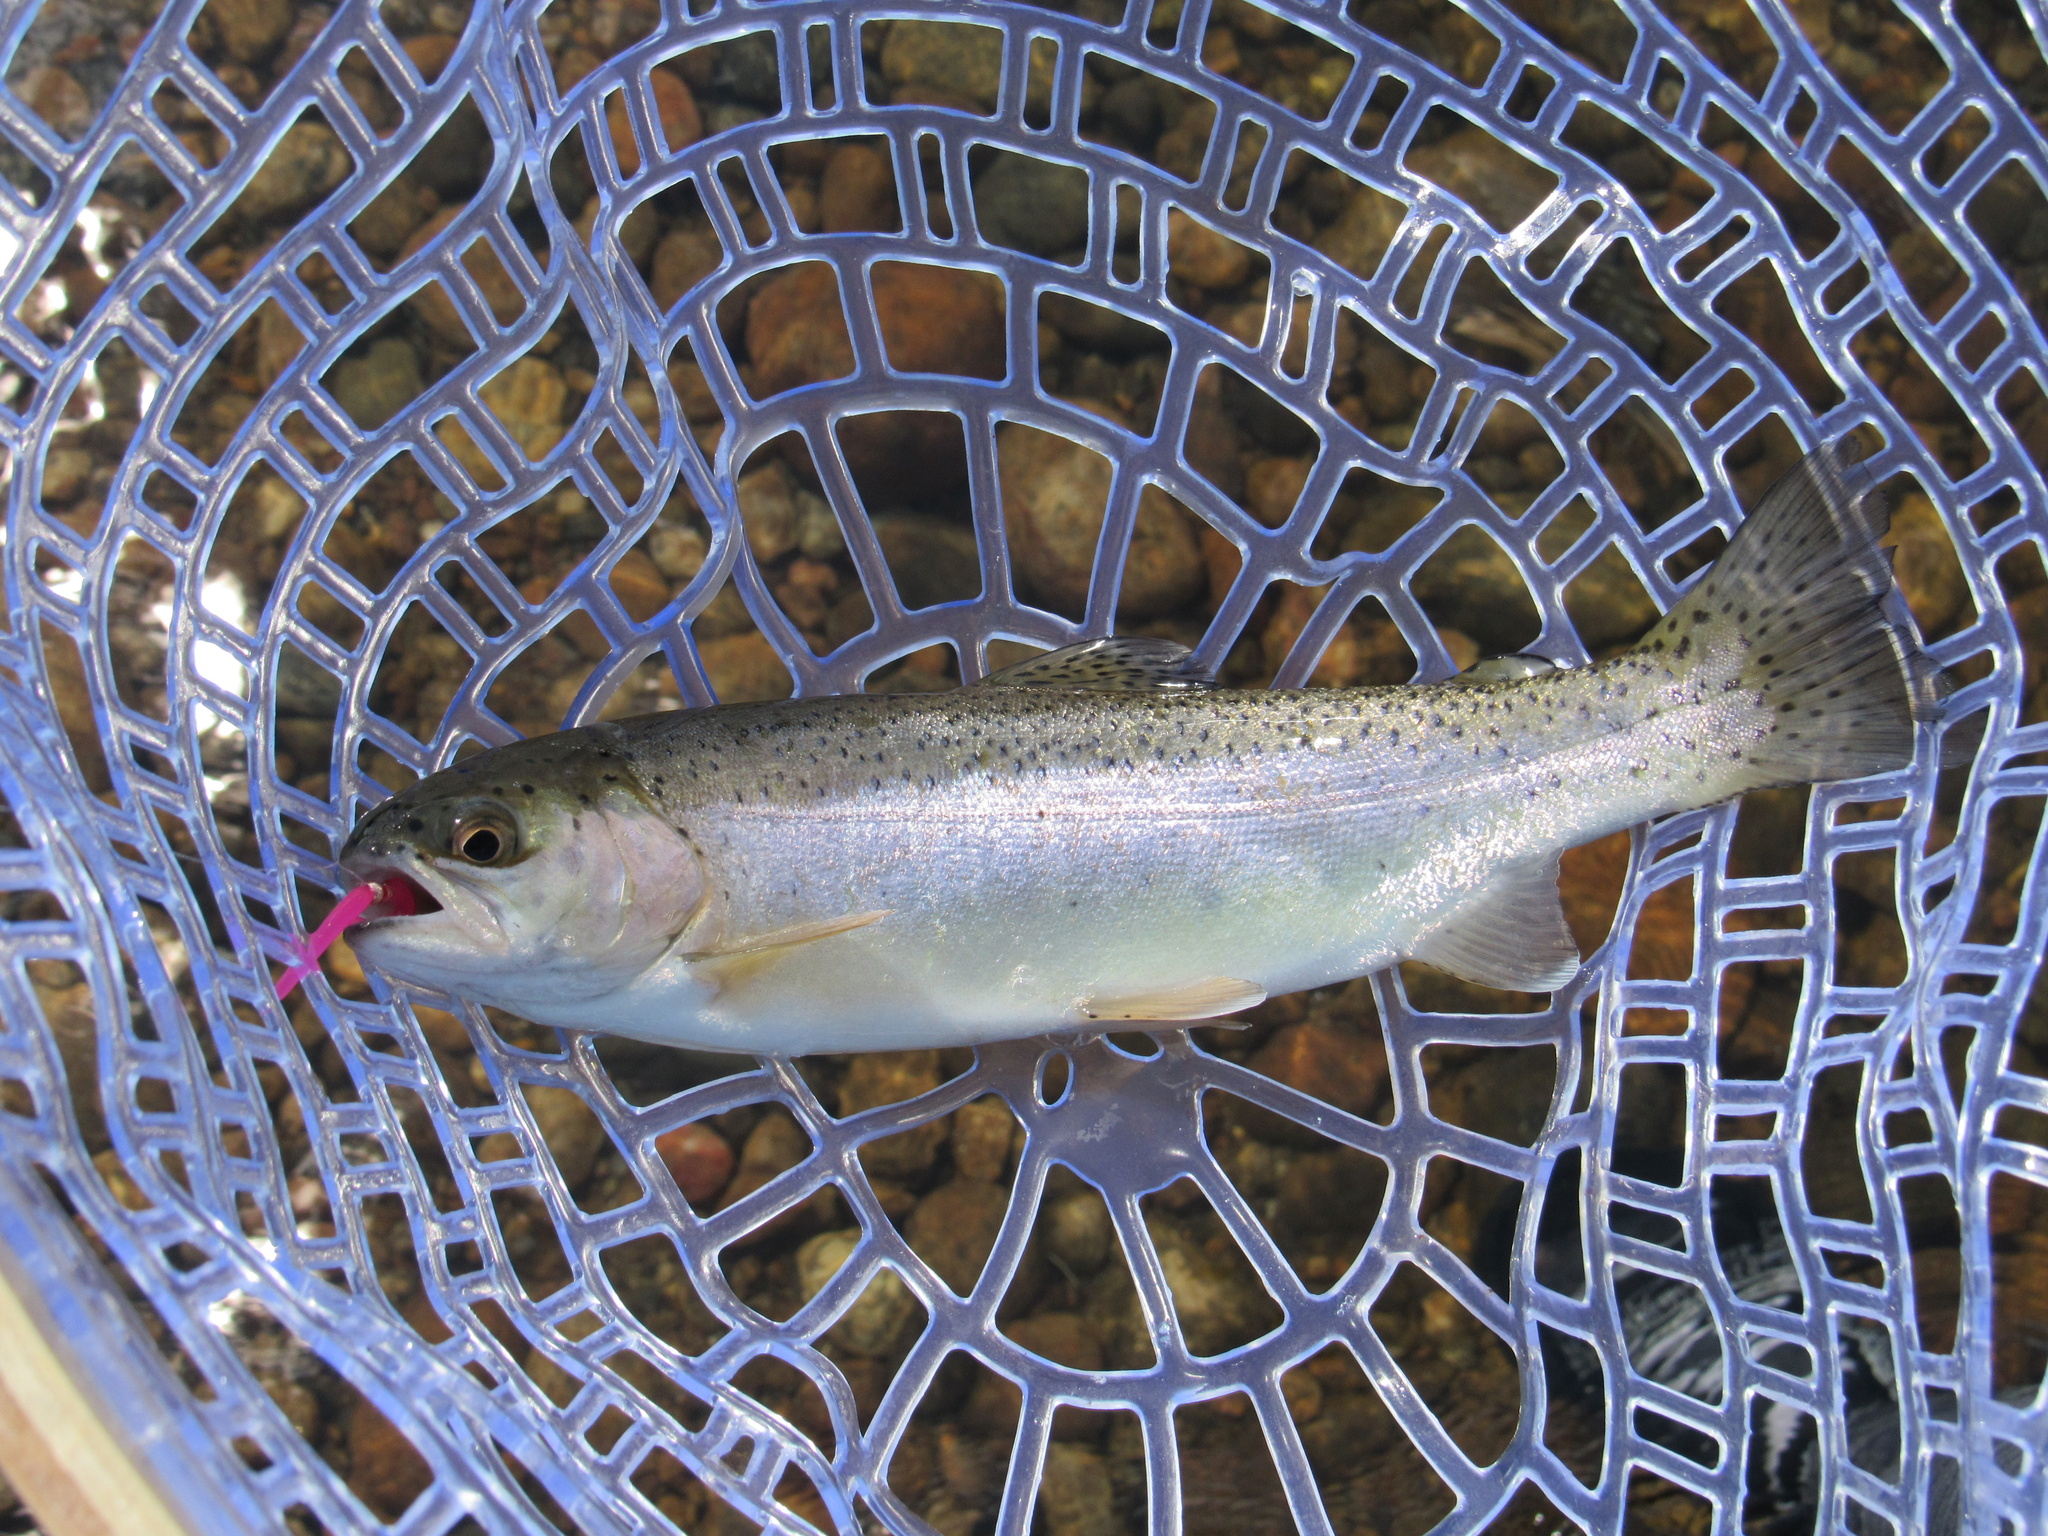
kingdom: Animalia
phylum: Chordata
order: Salmoniformes
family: Salmonidae
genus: Oncorhynchus
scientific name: Oncorhynchus mykiss
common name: Rainbow trout
